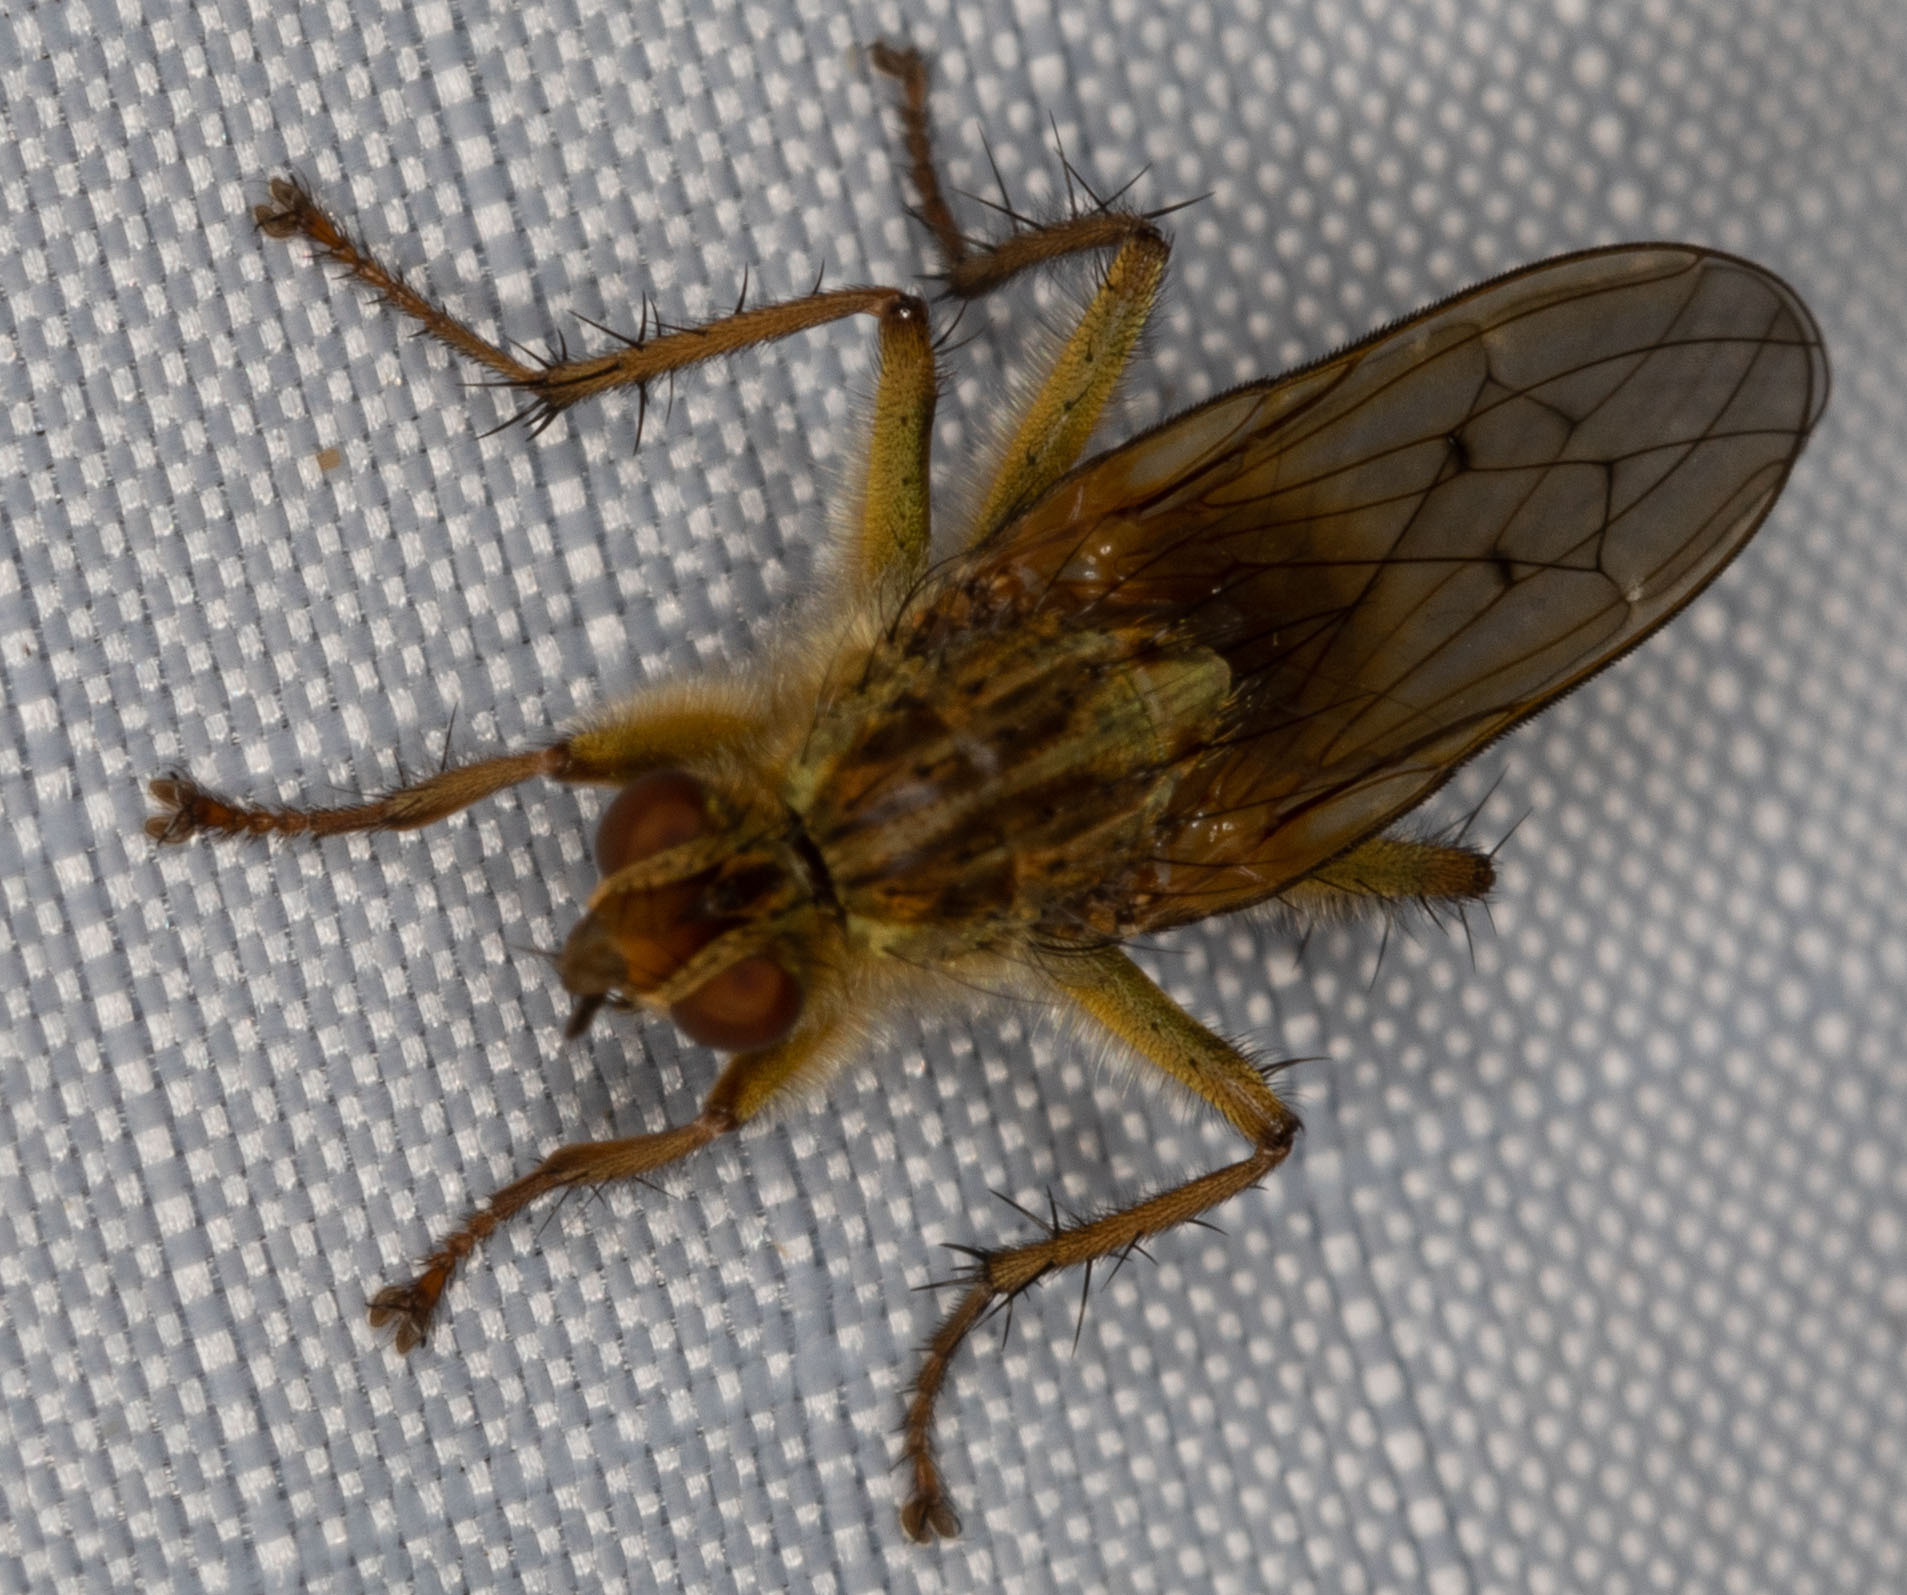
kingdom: Animalia
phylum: Arthropoda
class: Insecta
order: Diptera
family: Scathophagidae
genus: Scathophaga
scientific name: Scathophaga stercoraria
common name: Yellow dung fly
